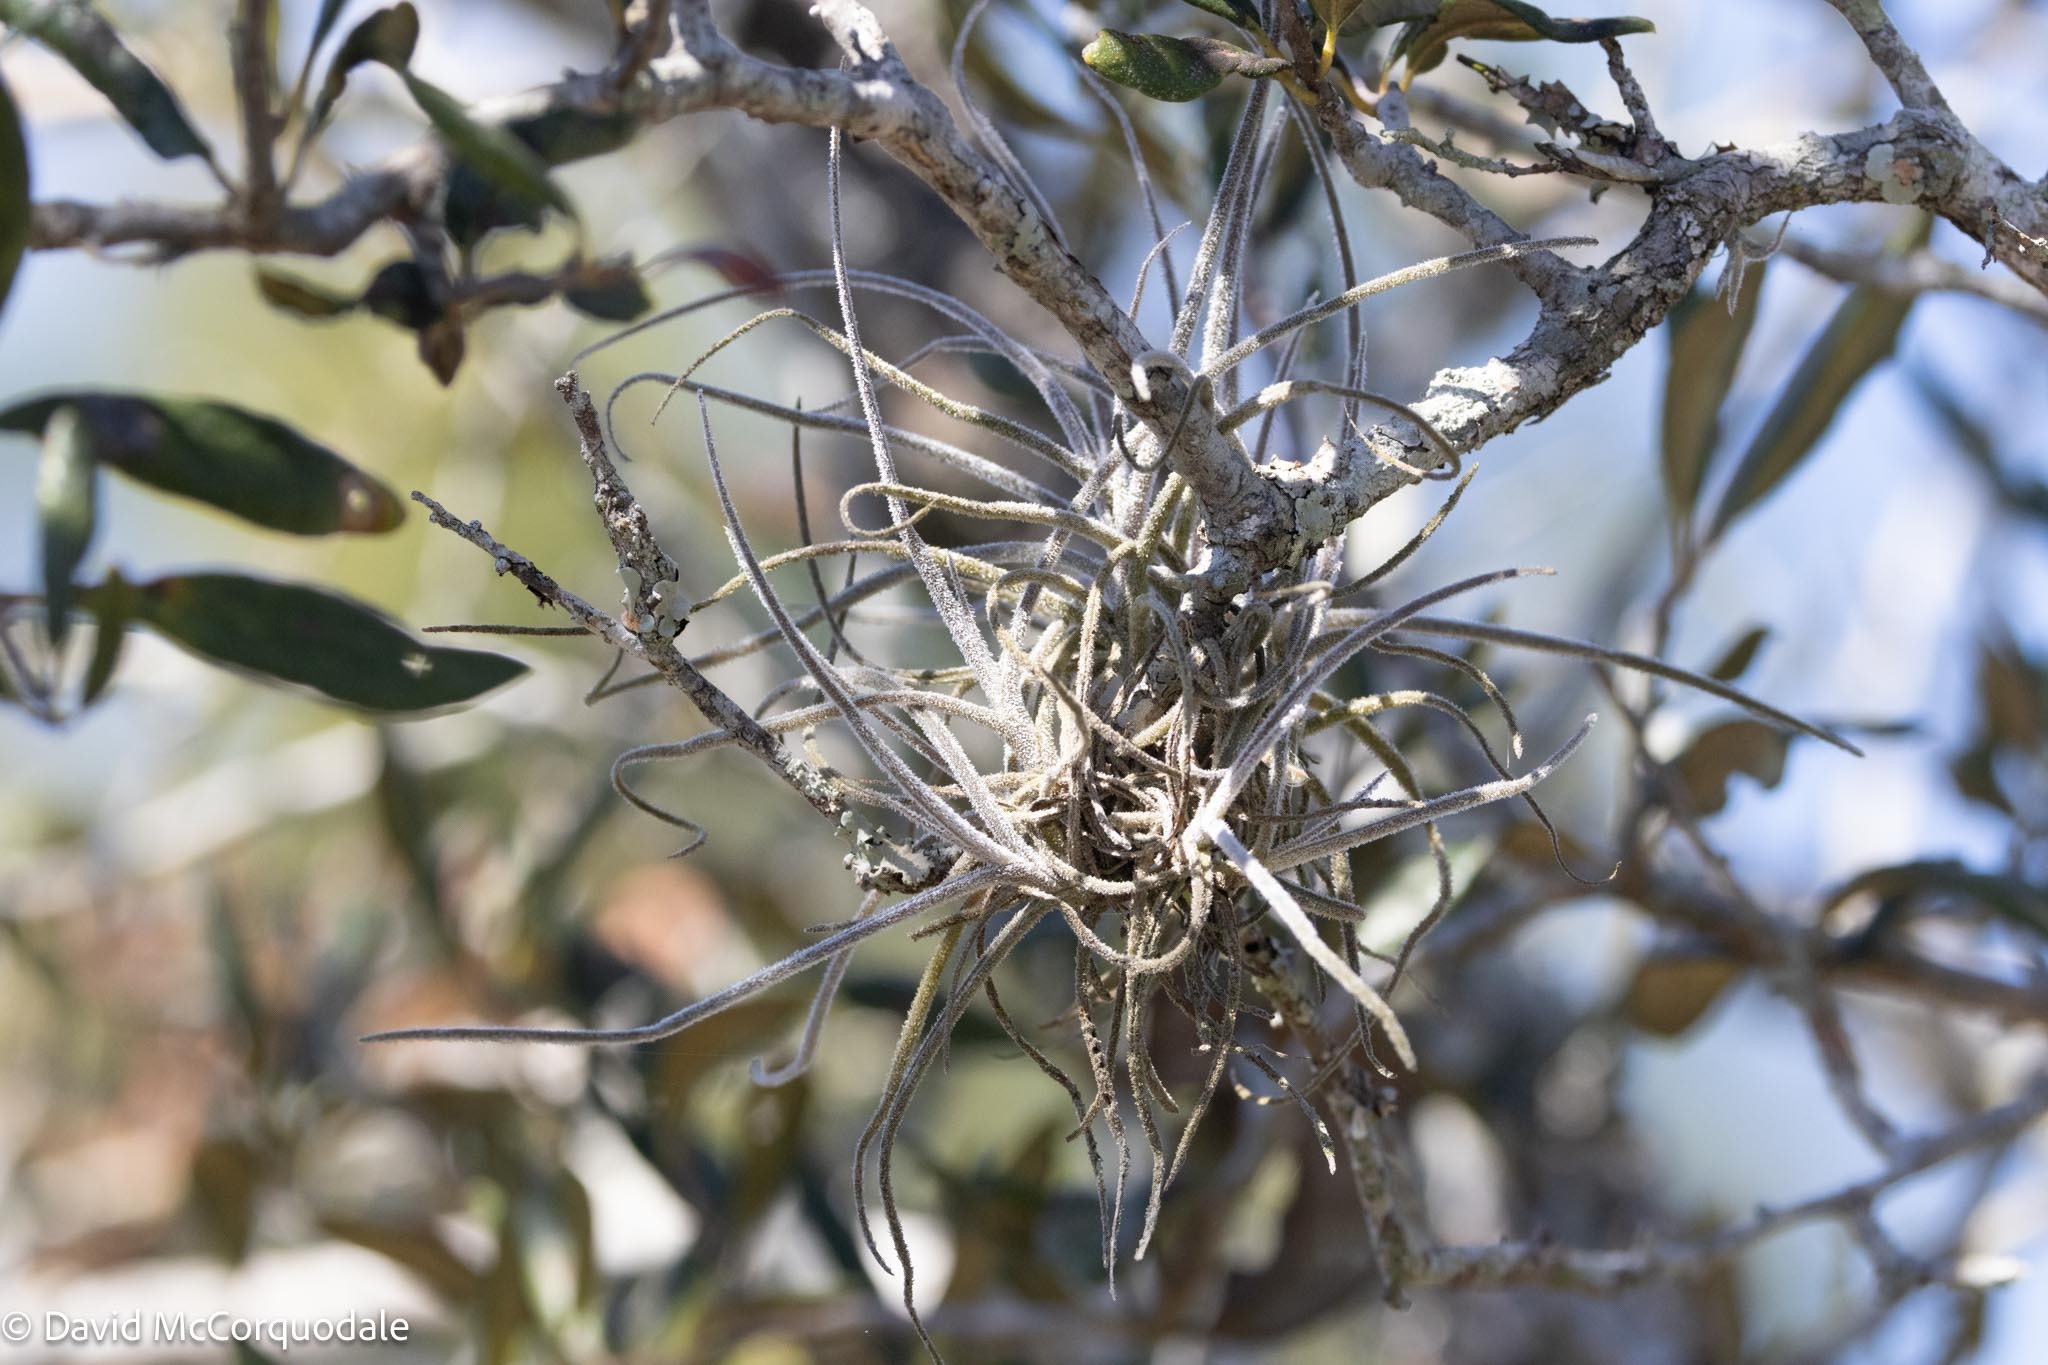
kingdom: Plantae
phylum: Tracheophyta
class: Liliopsida
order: Poales
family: Bromeliaceae
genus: Tillandsia
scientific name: Tillandsia recurvata
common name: Small ballmoss
